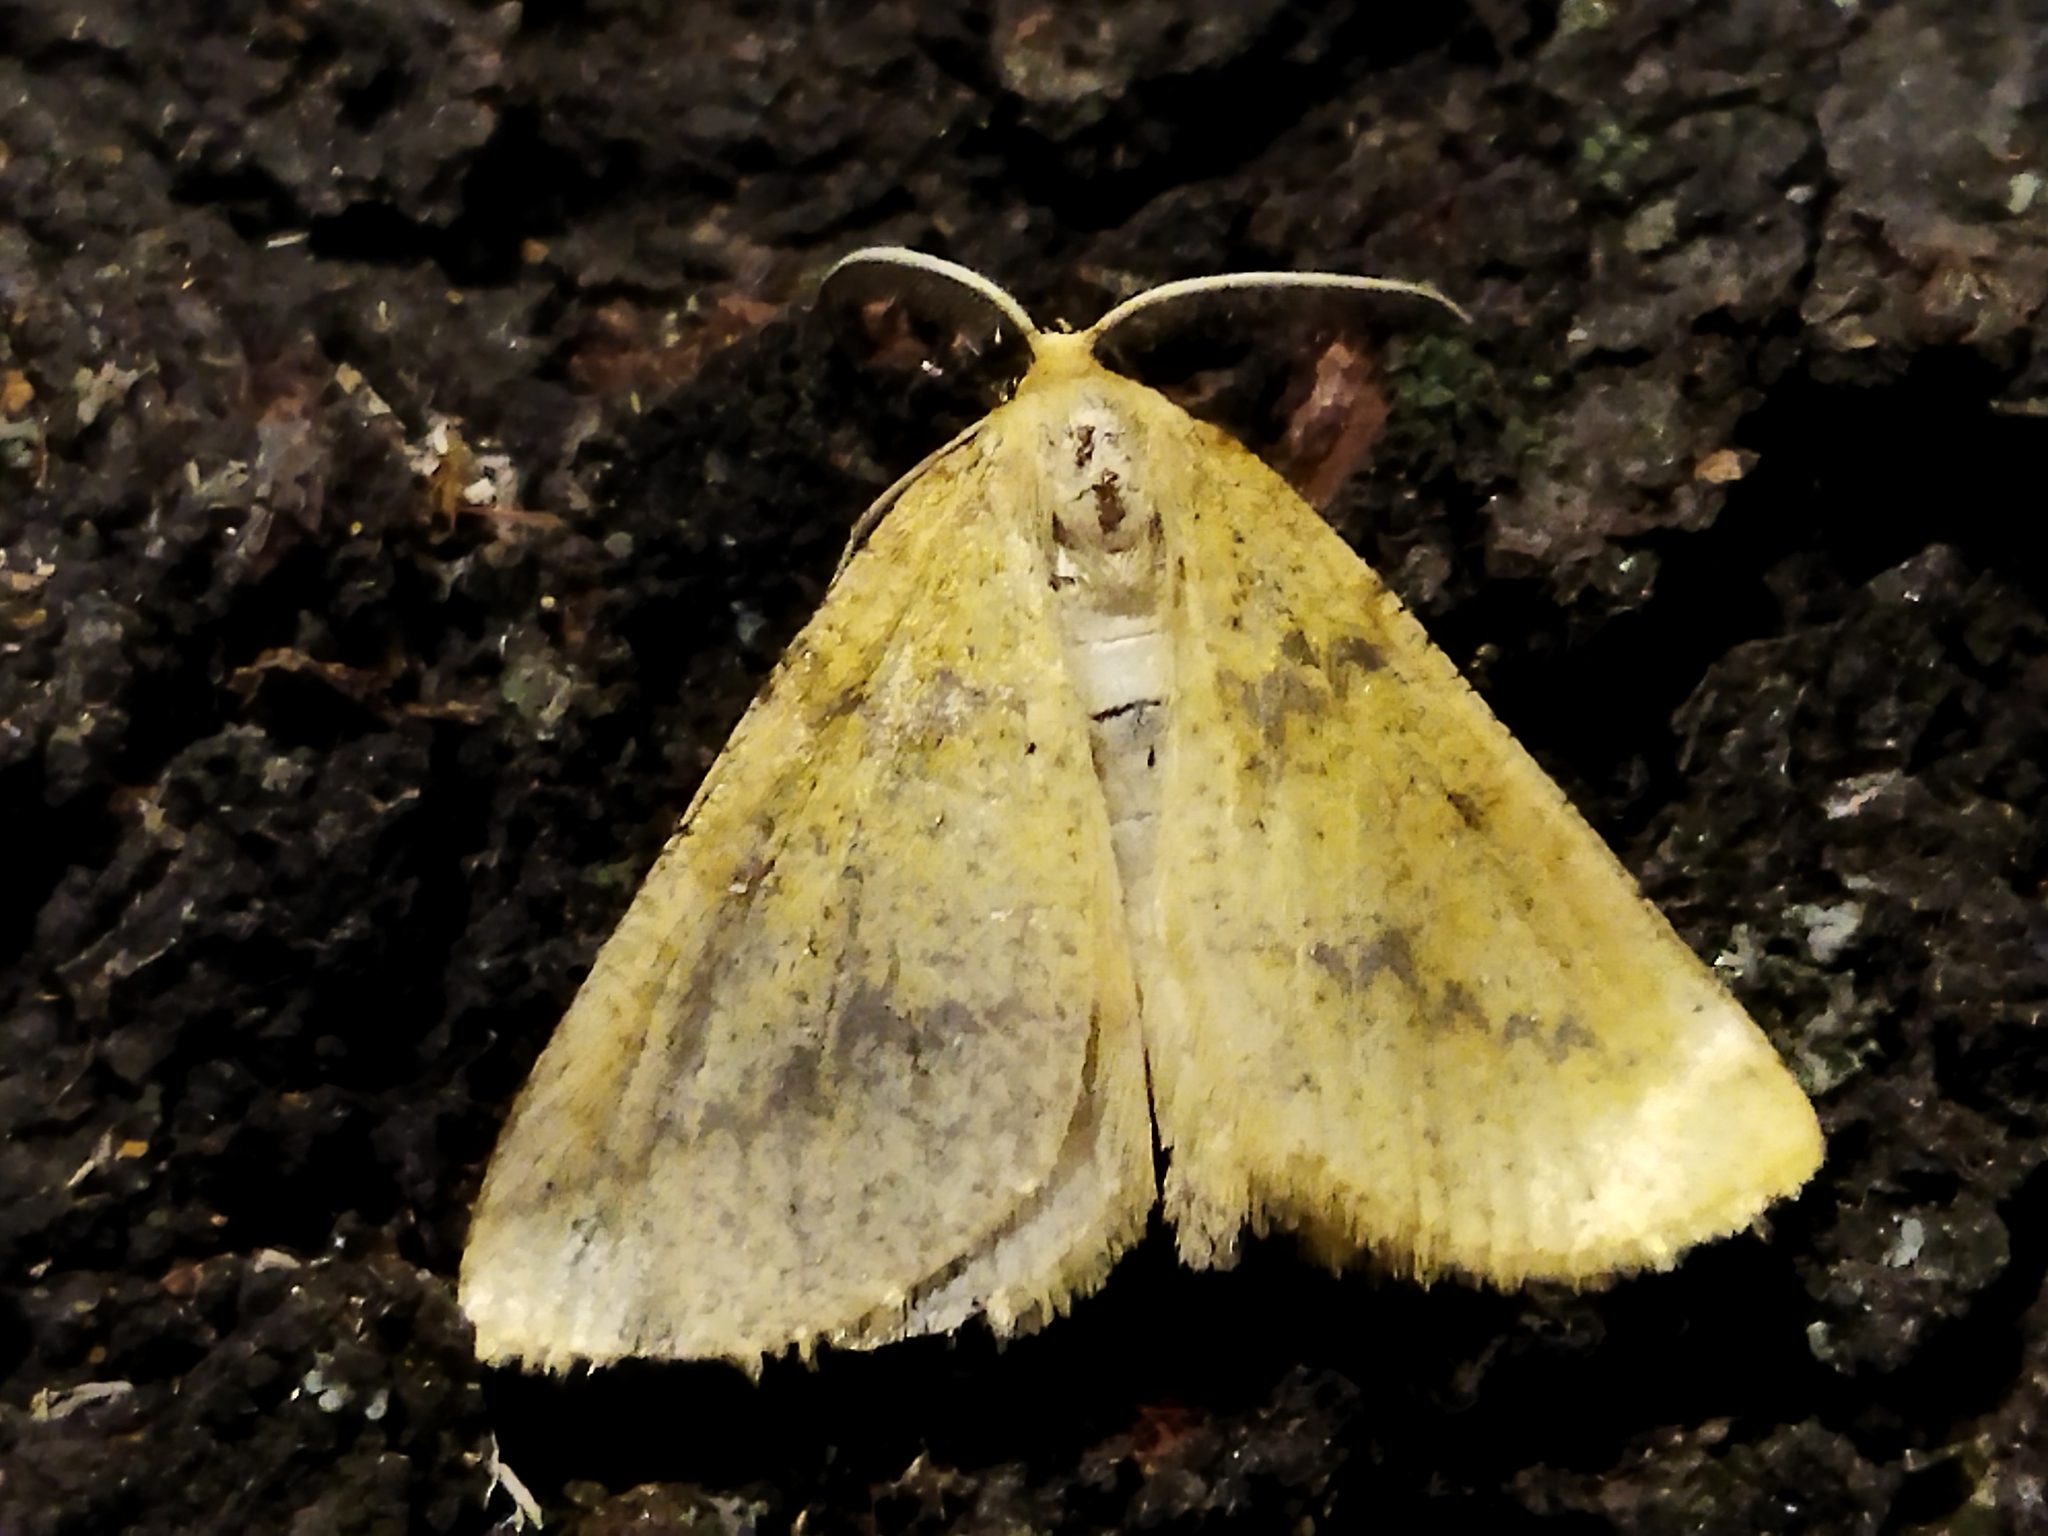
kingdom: Animalia
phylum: Arthropoda
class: Insecta
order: Lepidoptera
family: Geometridae
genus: Aspitates
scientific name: Aspitates ochrearia
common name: Yellow belle
